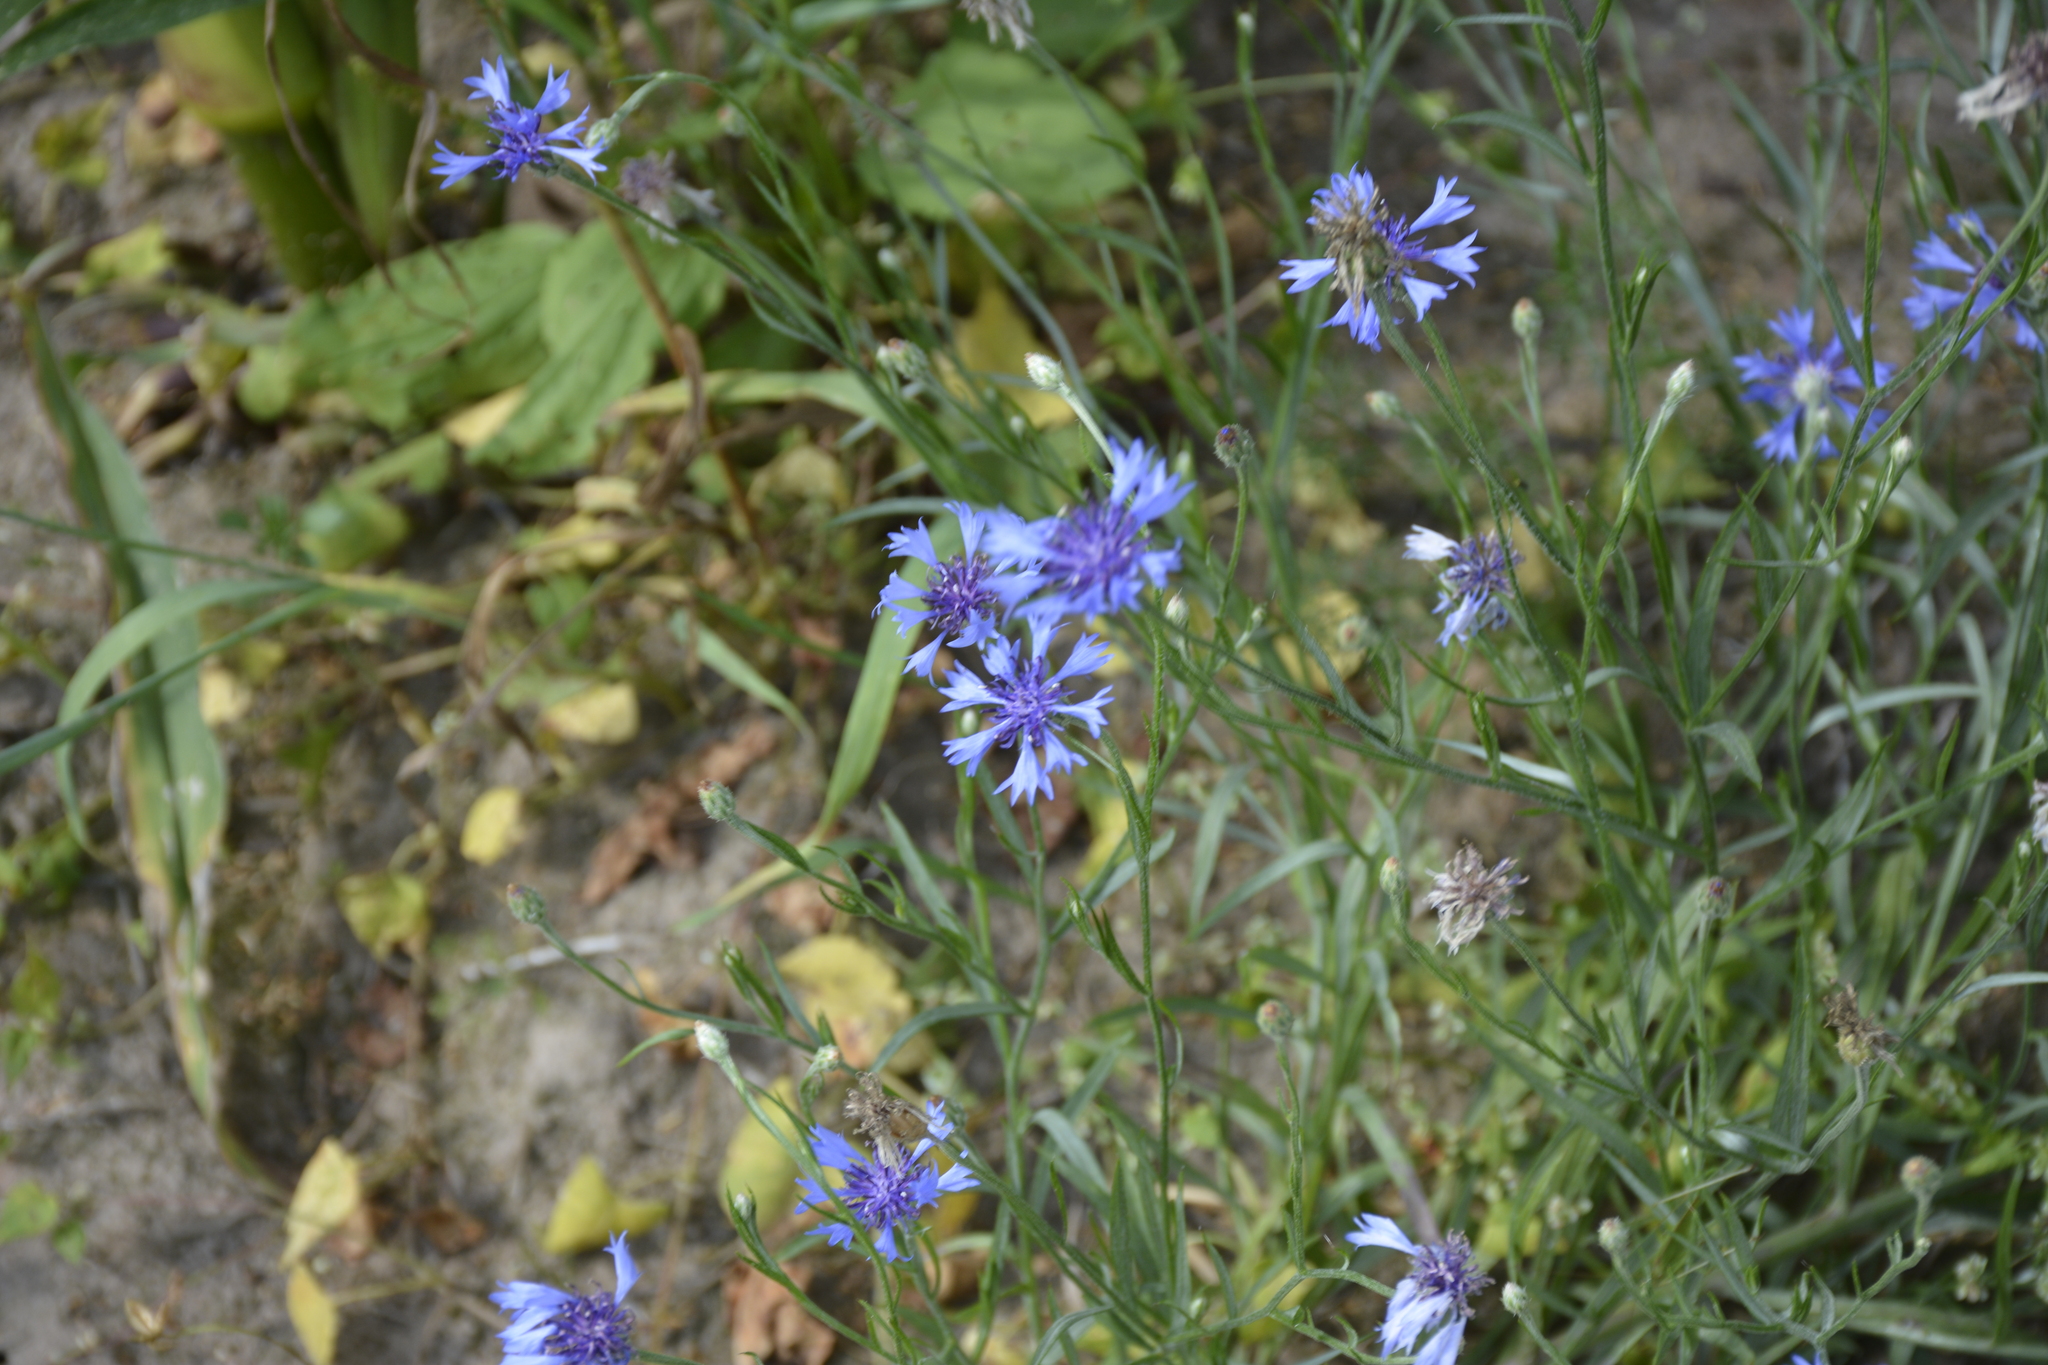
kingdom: Plantae
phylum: Tracheophyta
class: Magnoliopsida
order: Asterales
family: Asteraceae
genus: Centaurea
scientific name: Centaurea cyanus
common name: Cornflower
